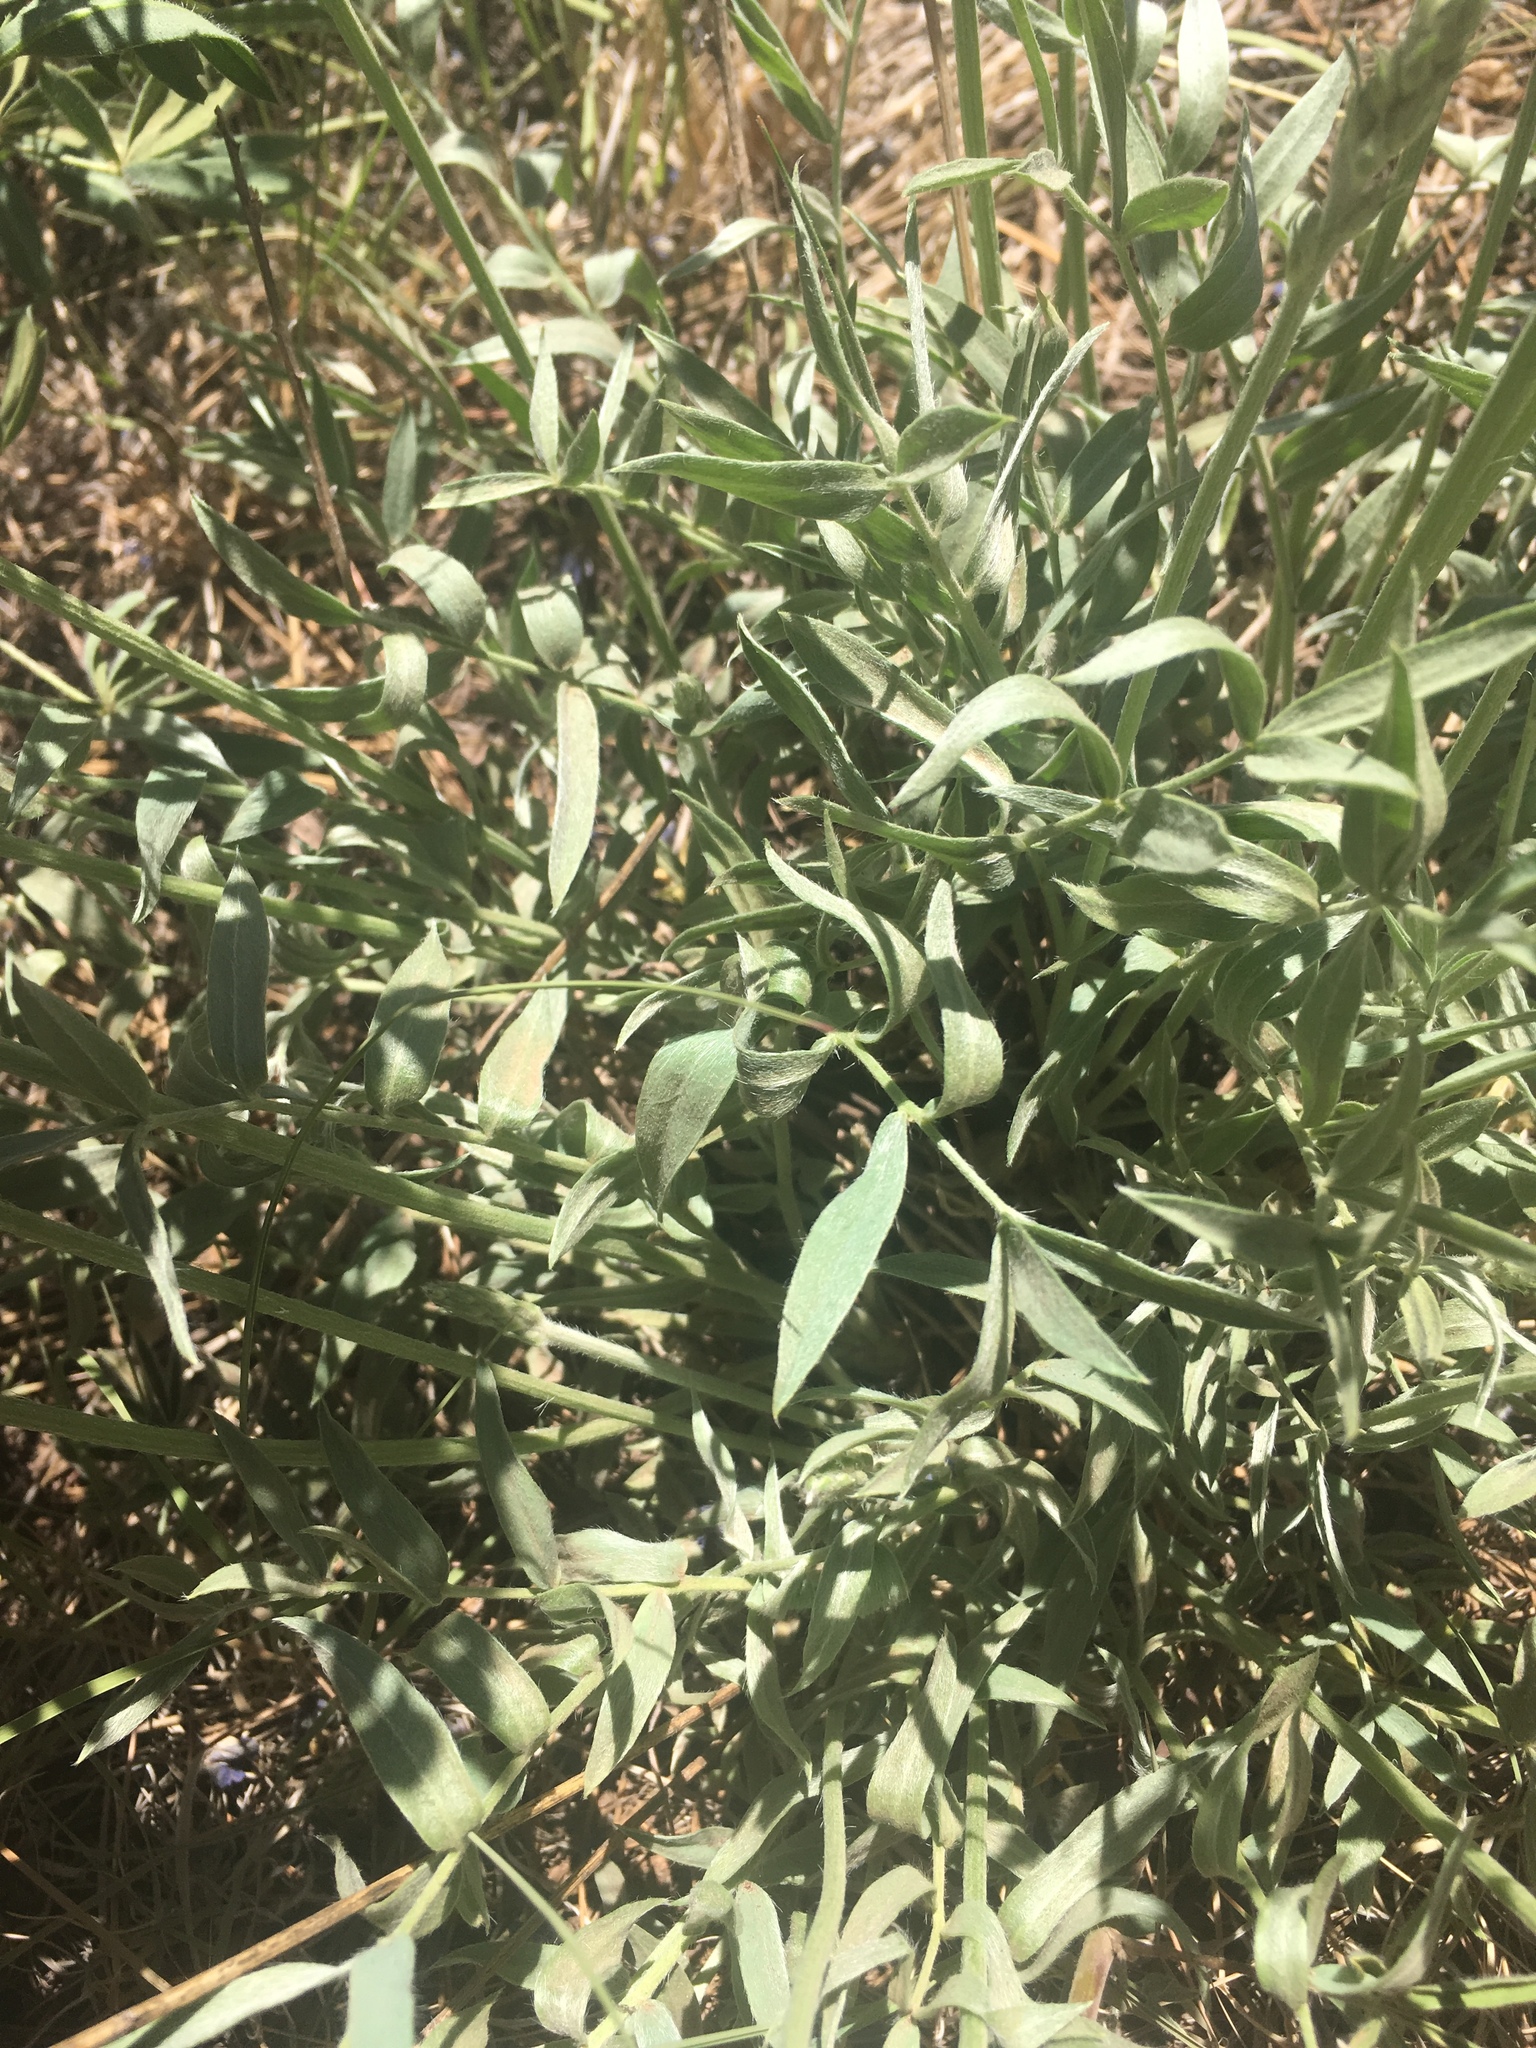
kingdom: Plantae
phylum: Tracheophyta
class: Magnoliopsida
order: Fabales
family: Fabaceae
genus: Oxytropis
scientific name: Oxytropis lambertii
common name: Purple locoweed
